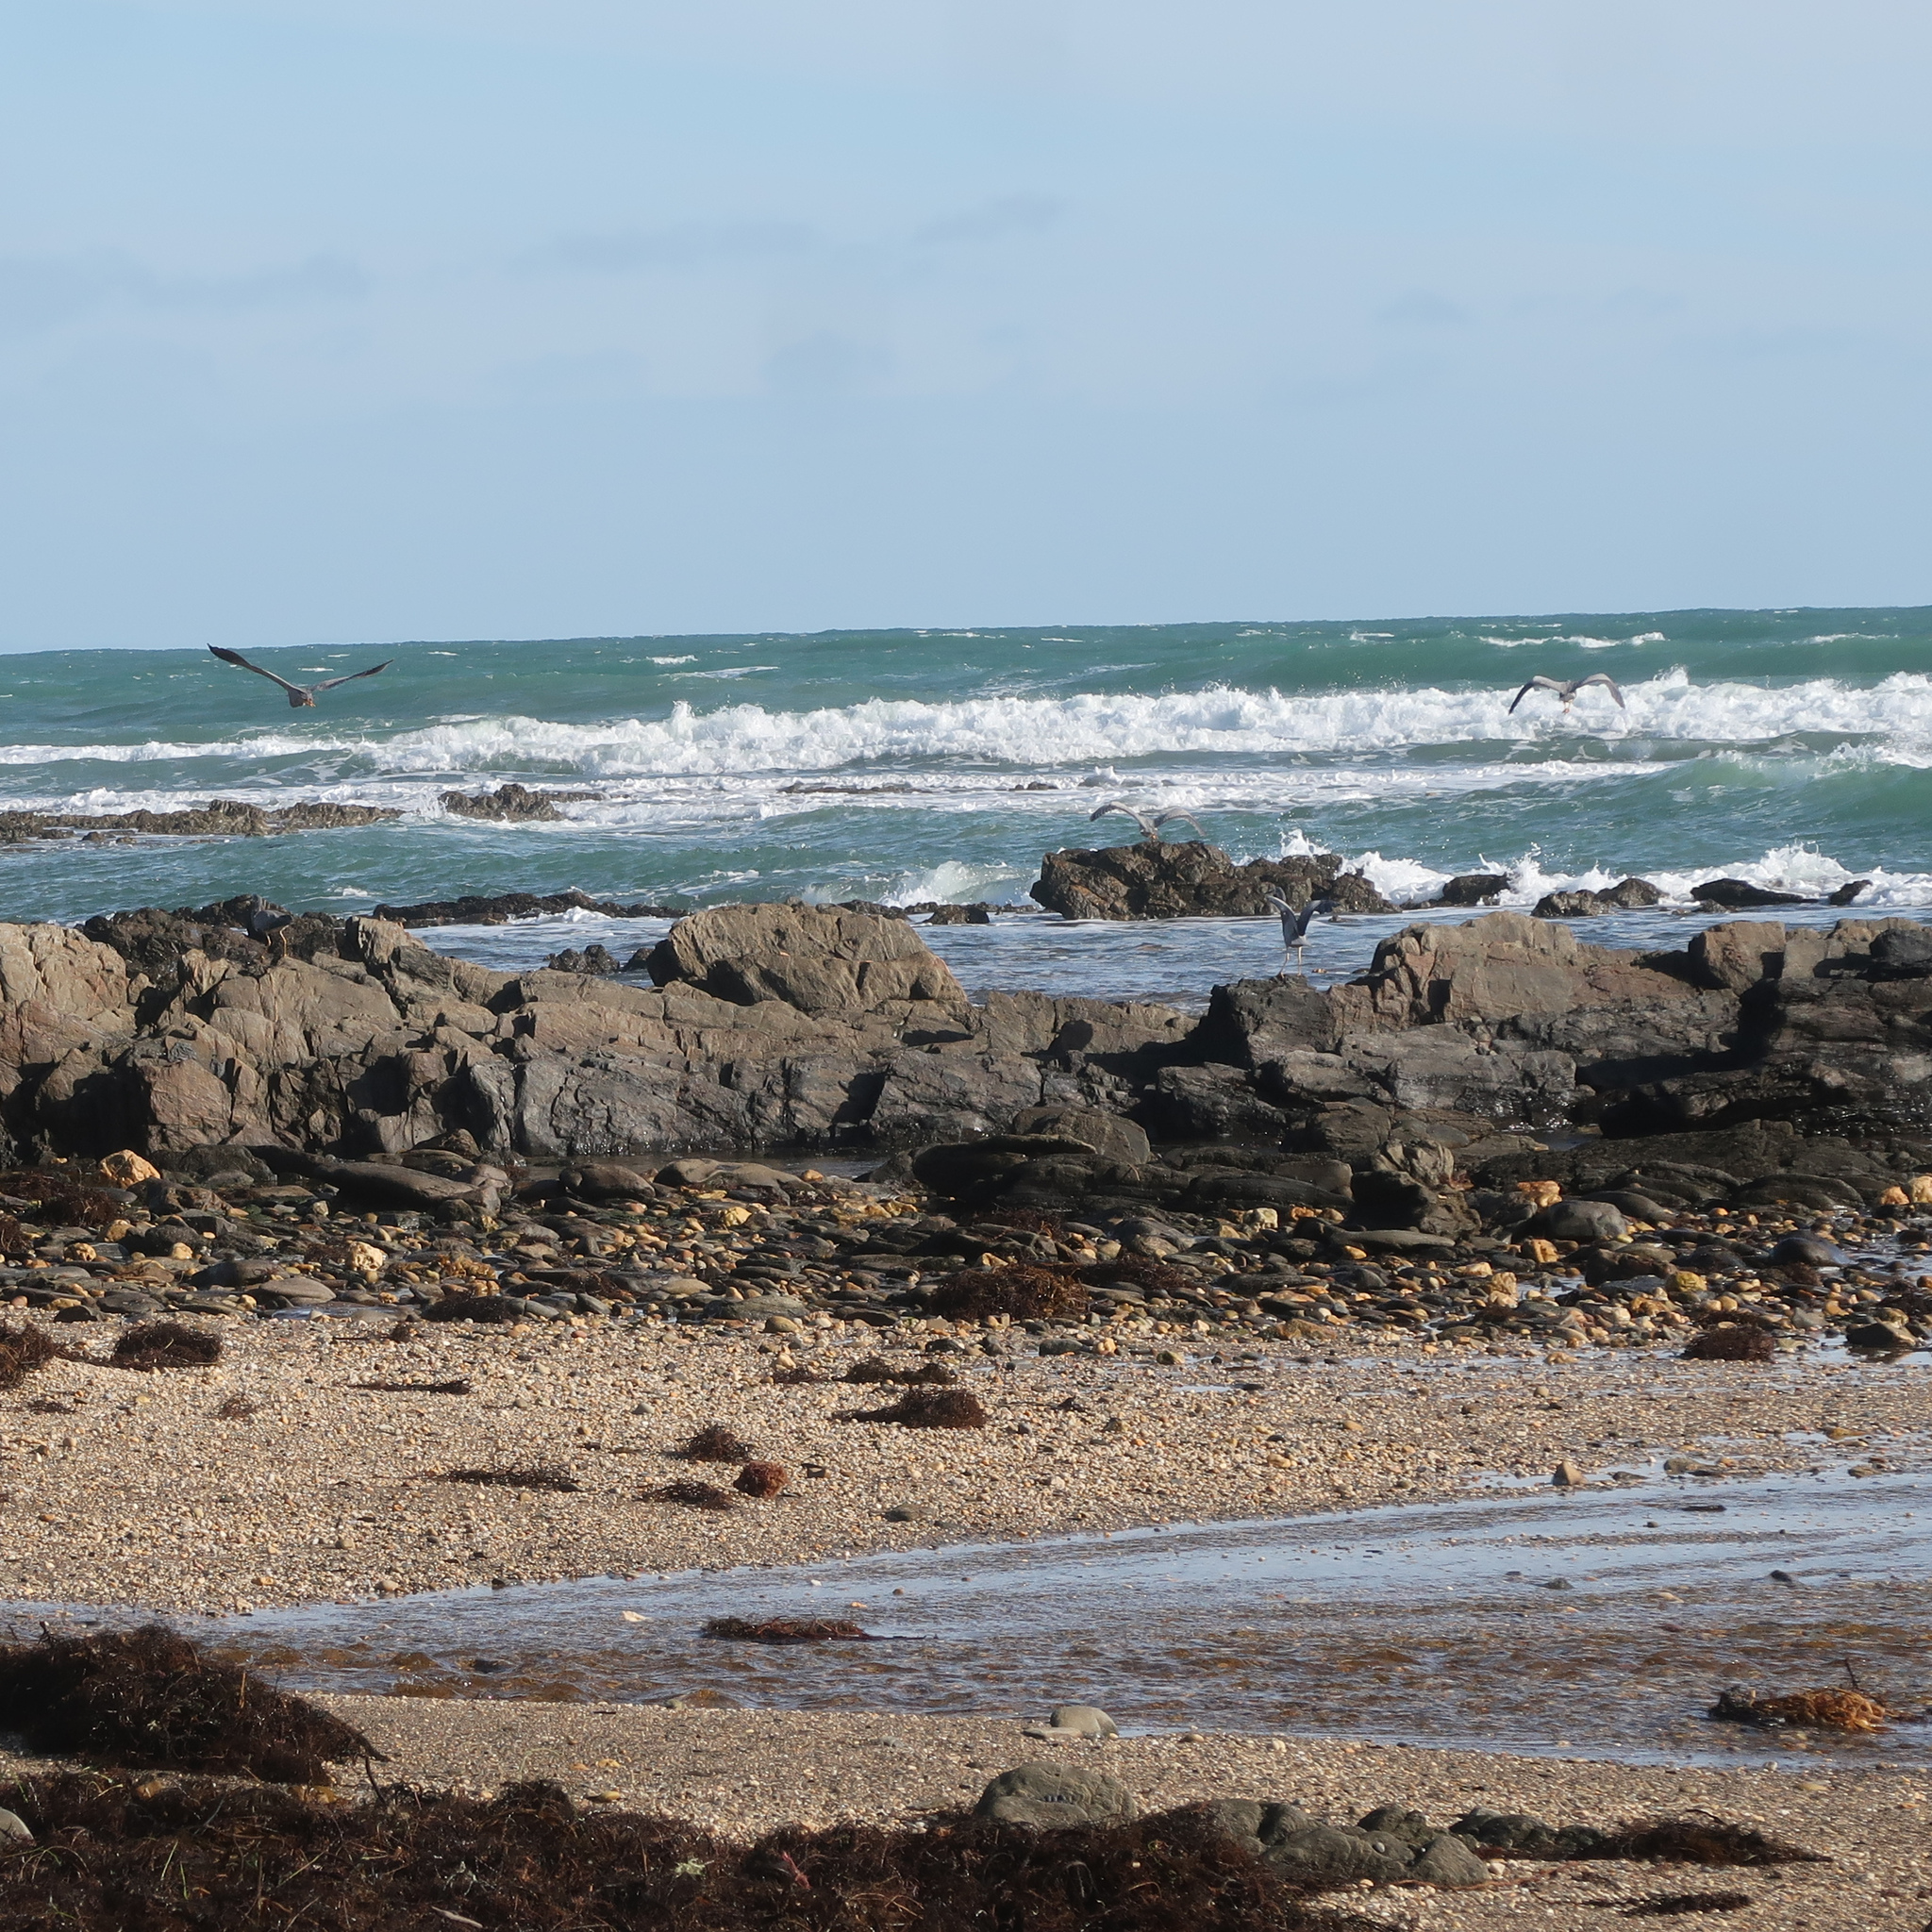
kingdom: Animalia
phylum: Chordata
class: Aves
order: Pelecaniformes
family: Ardeidae
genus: Egretta
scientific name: Egretta novaehollandiae
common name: White-faced heron
